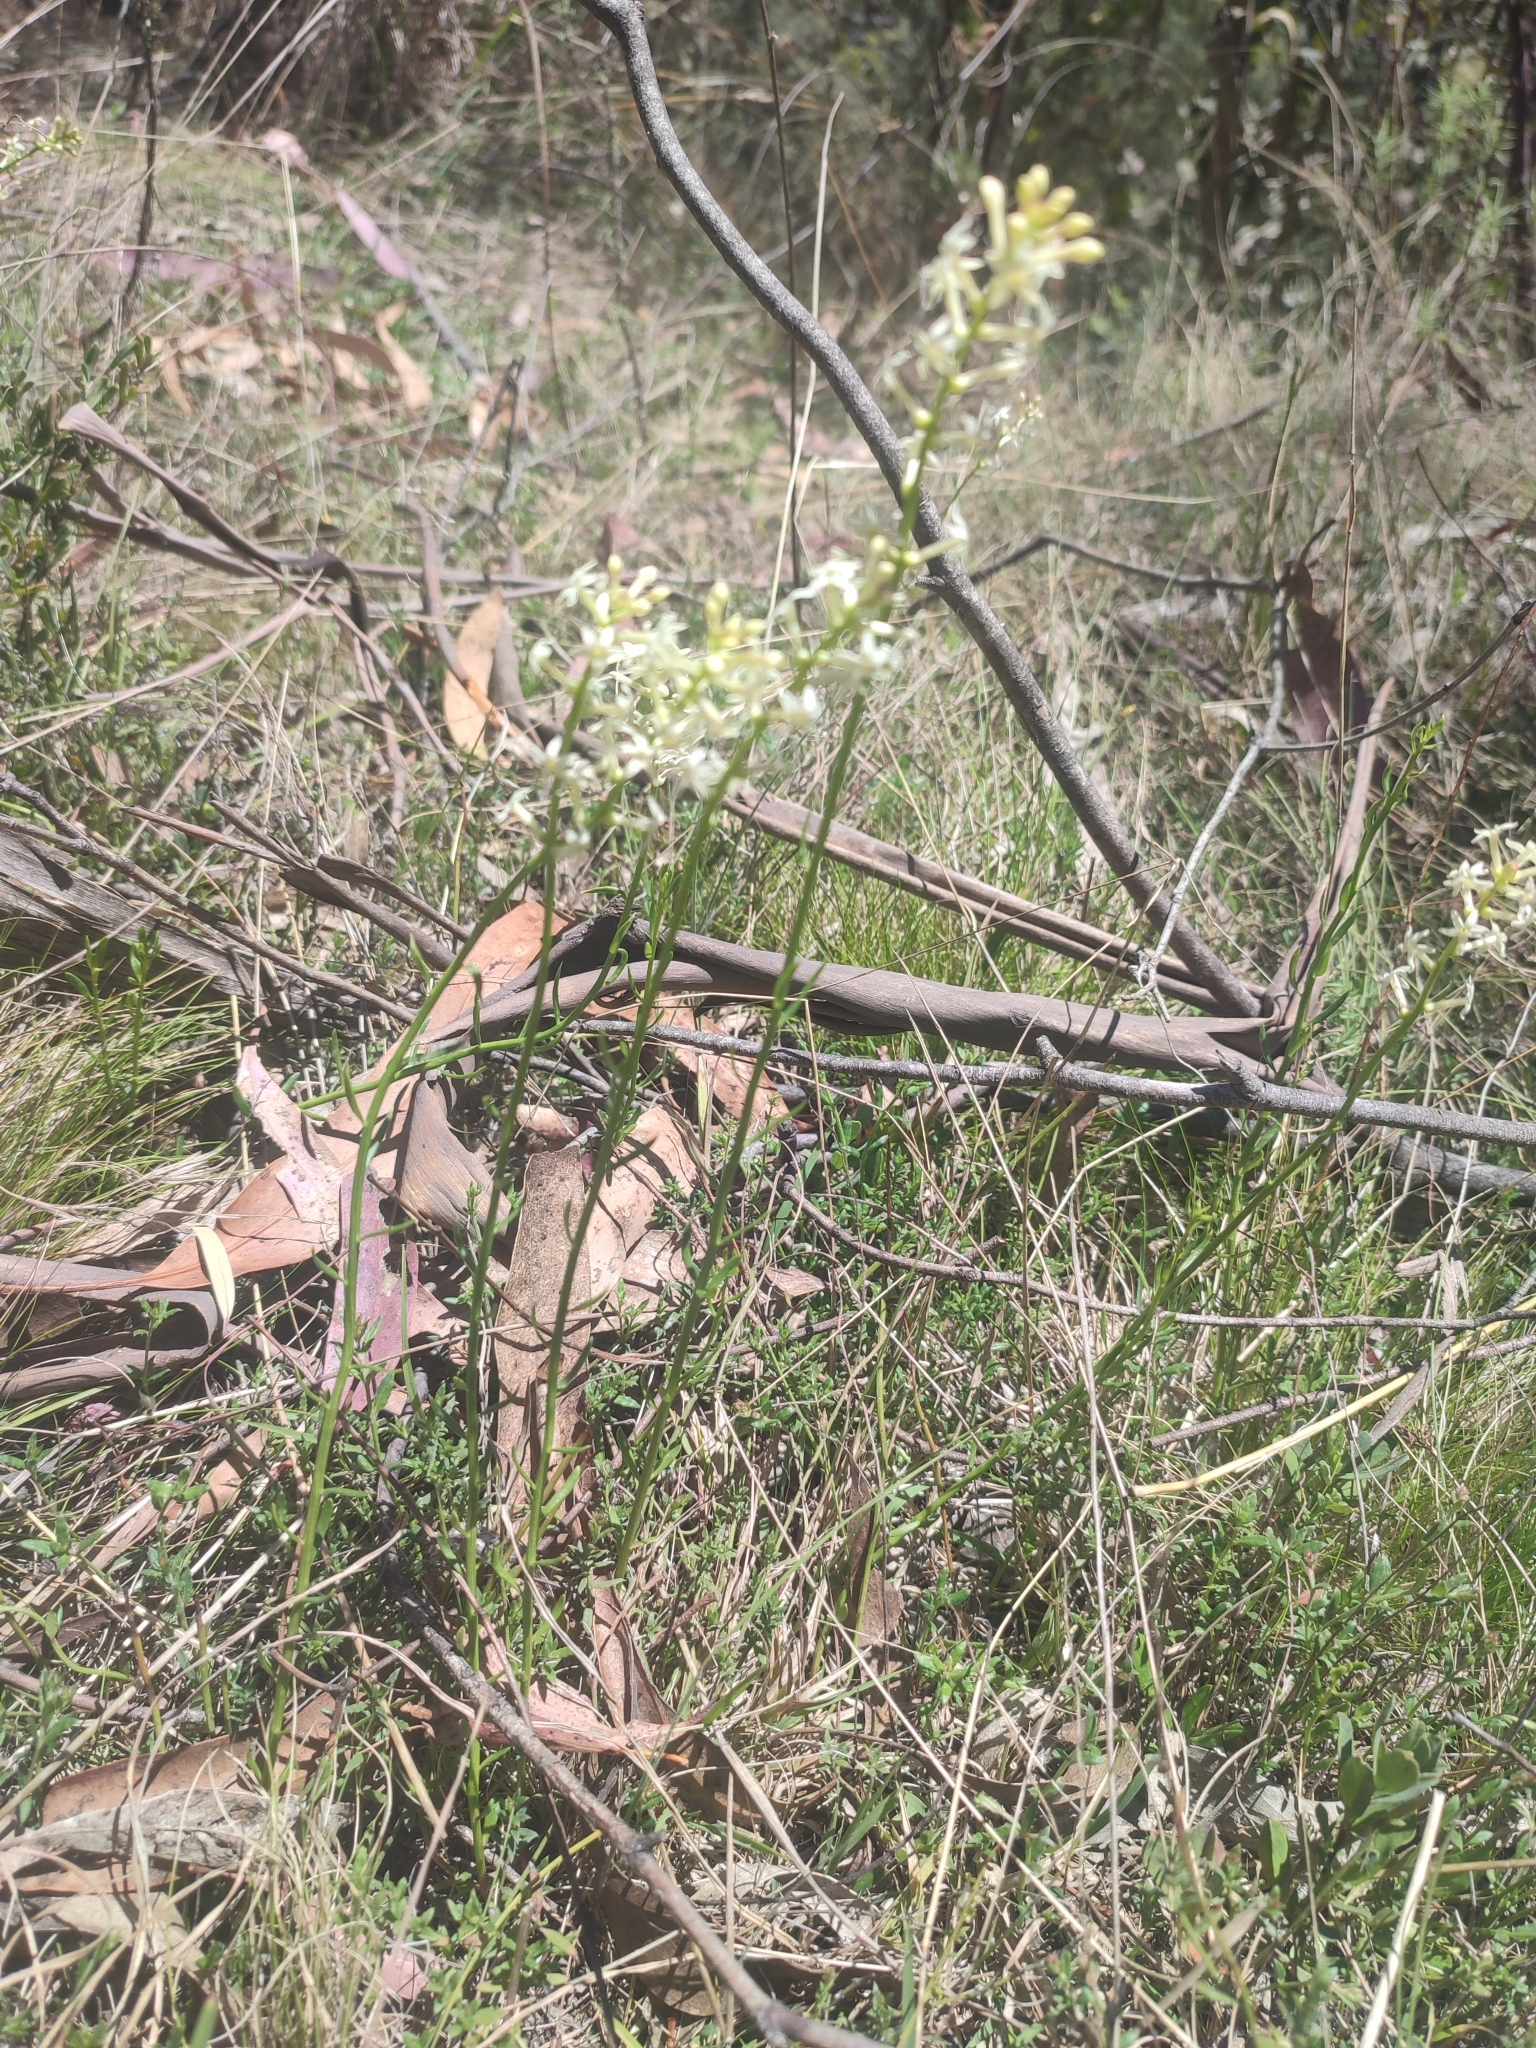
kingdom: Plantae
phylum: Tracheophyta
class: Magnoliopsida
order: Celastrales
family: Celastraceae
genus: Stackhousia
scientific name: Stackhousia monogyna
